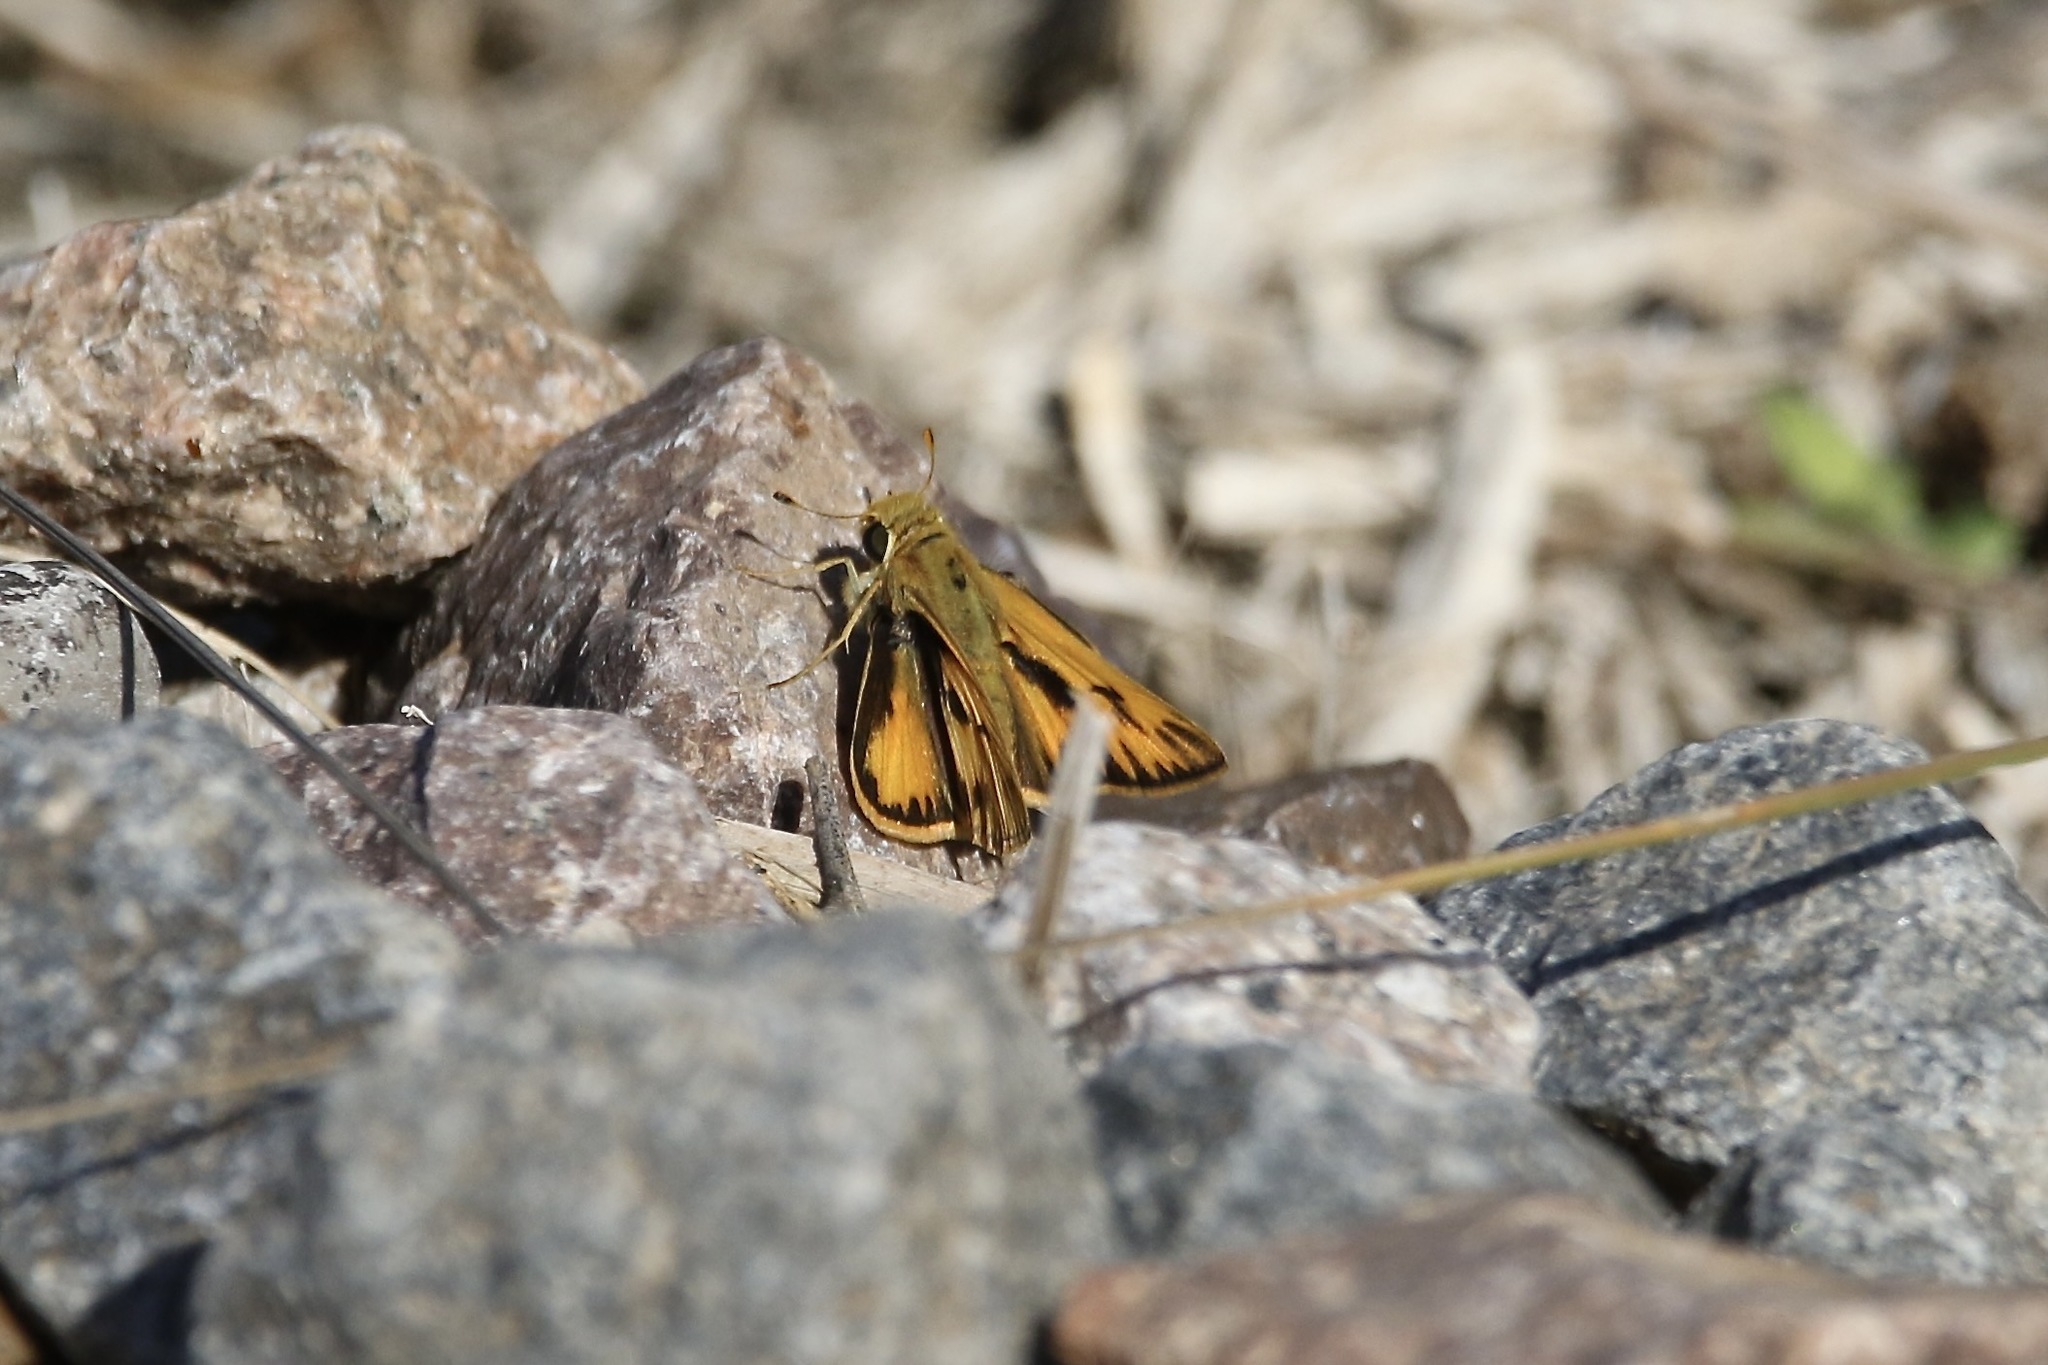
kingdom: Animalia
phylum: Arthropoda
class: Insecta
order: Lepidoptera
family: Hesperiidae
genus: Hylephila
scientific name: Hylephila phyleus
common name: Fiery skipper
